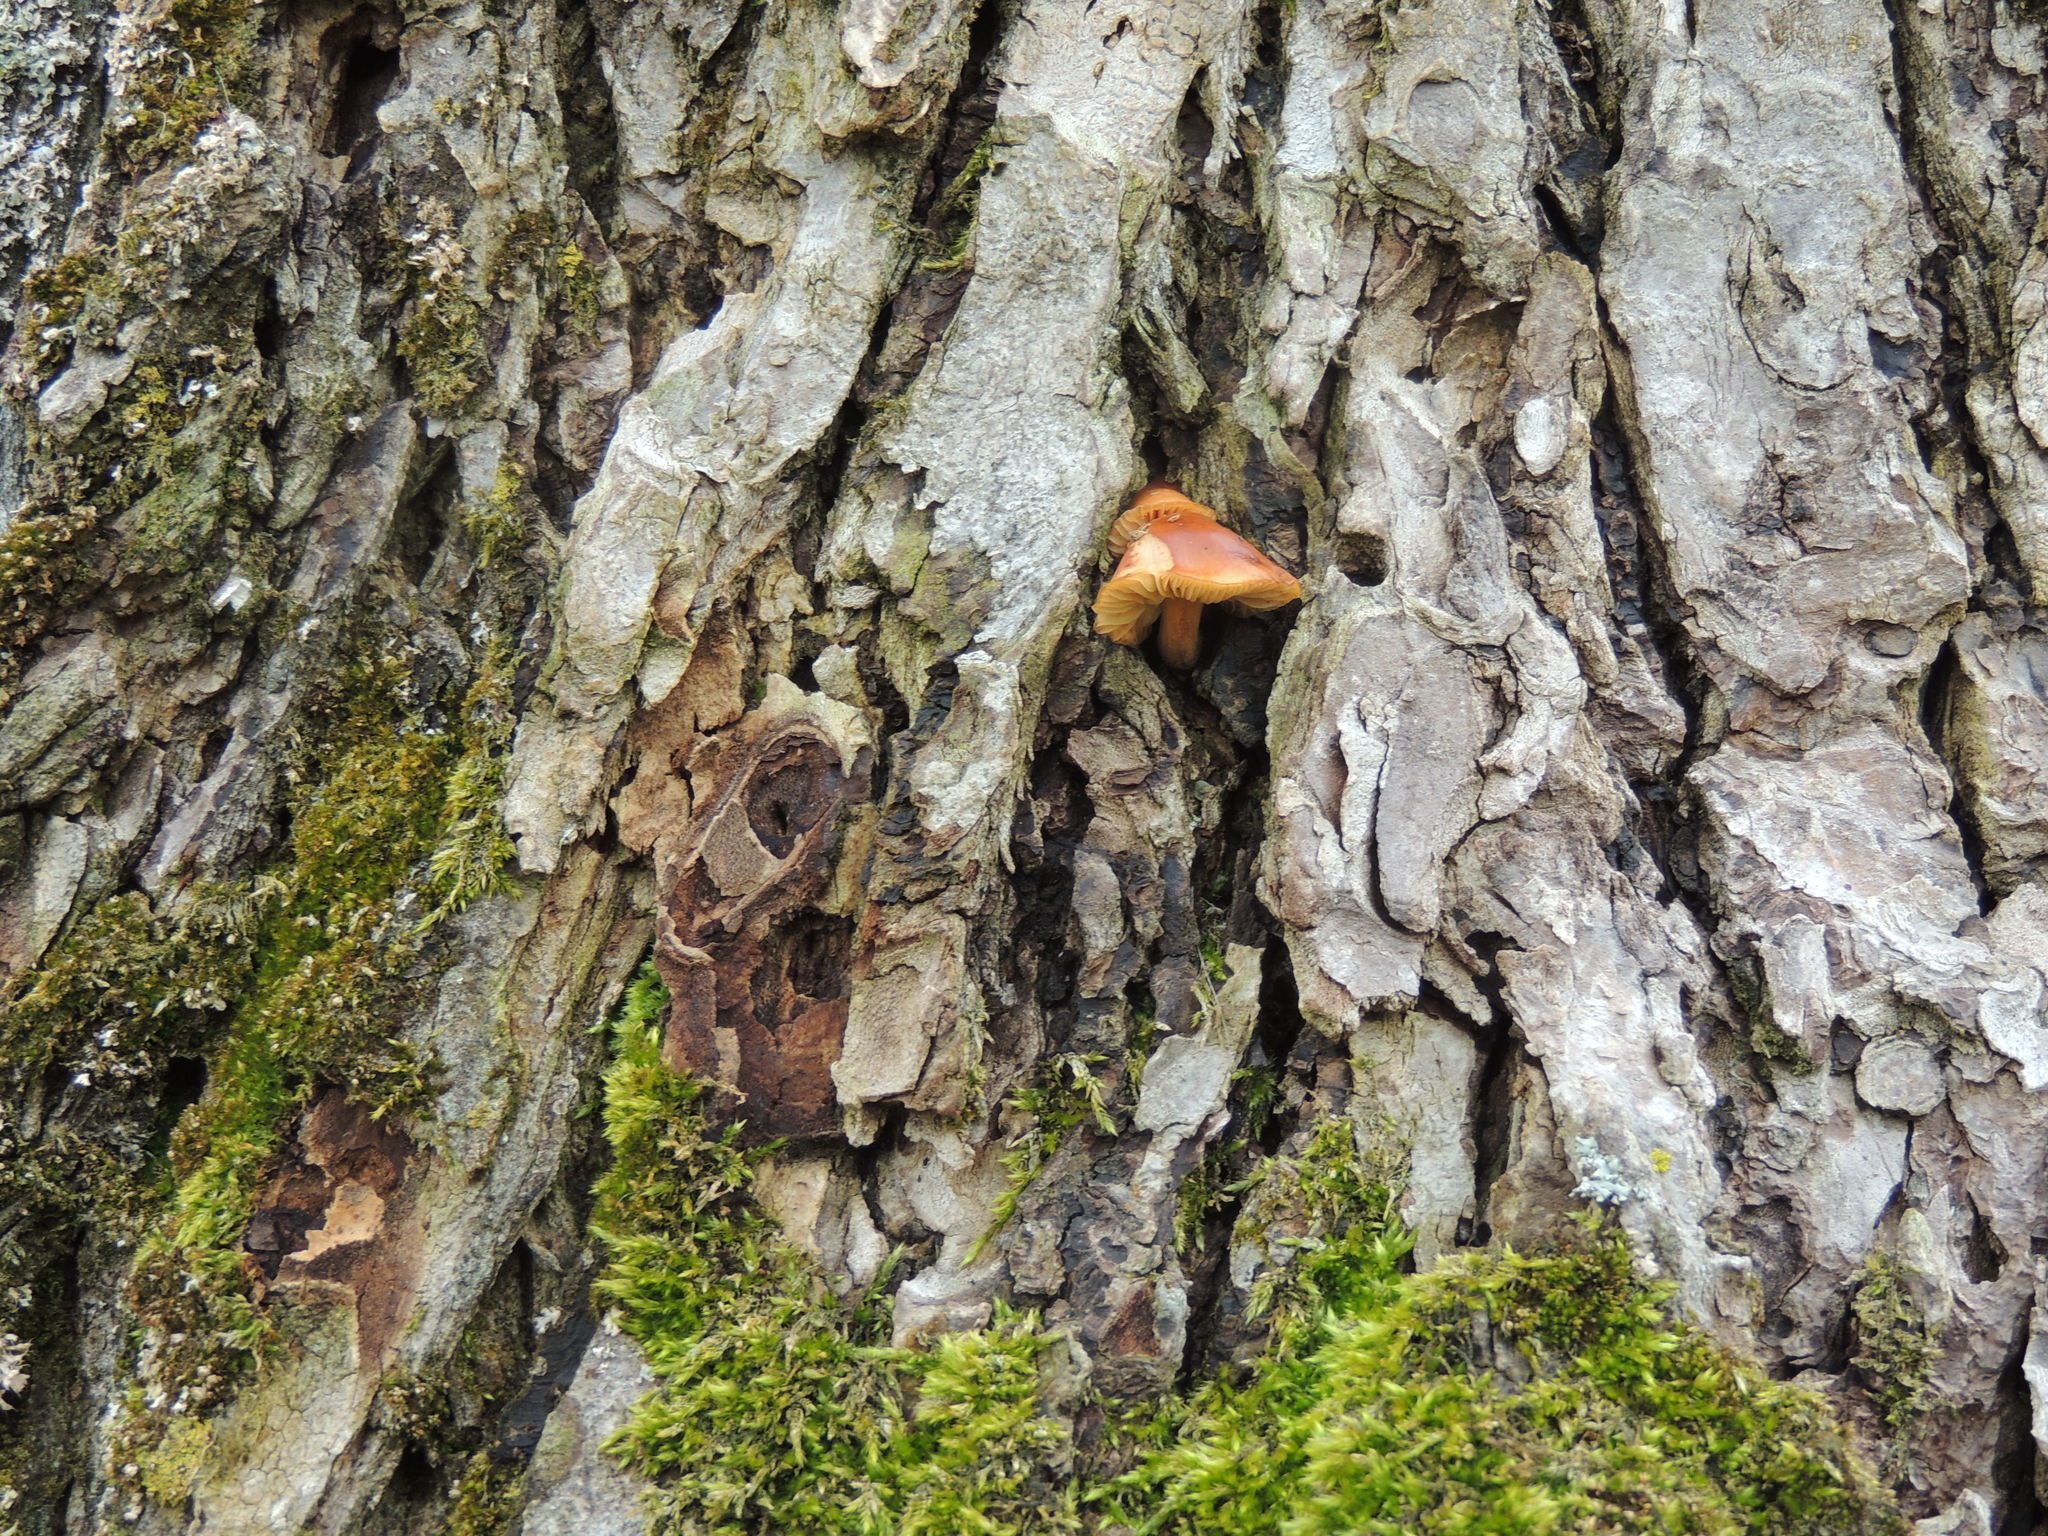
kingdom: Fungi
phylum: Basidiomycota
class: Agaricomycetes
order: Agaricales
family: Physalacriaceae
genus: Flammulina
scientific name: Flammulina velutipes
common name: Velvet shank
